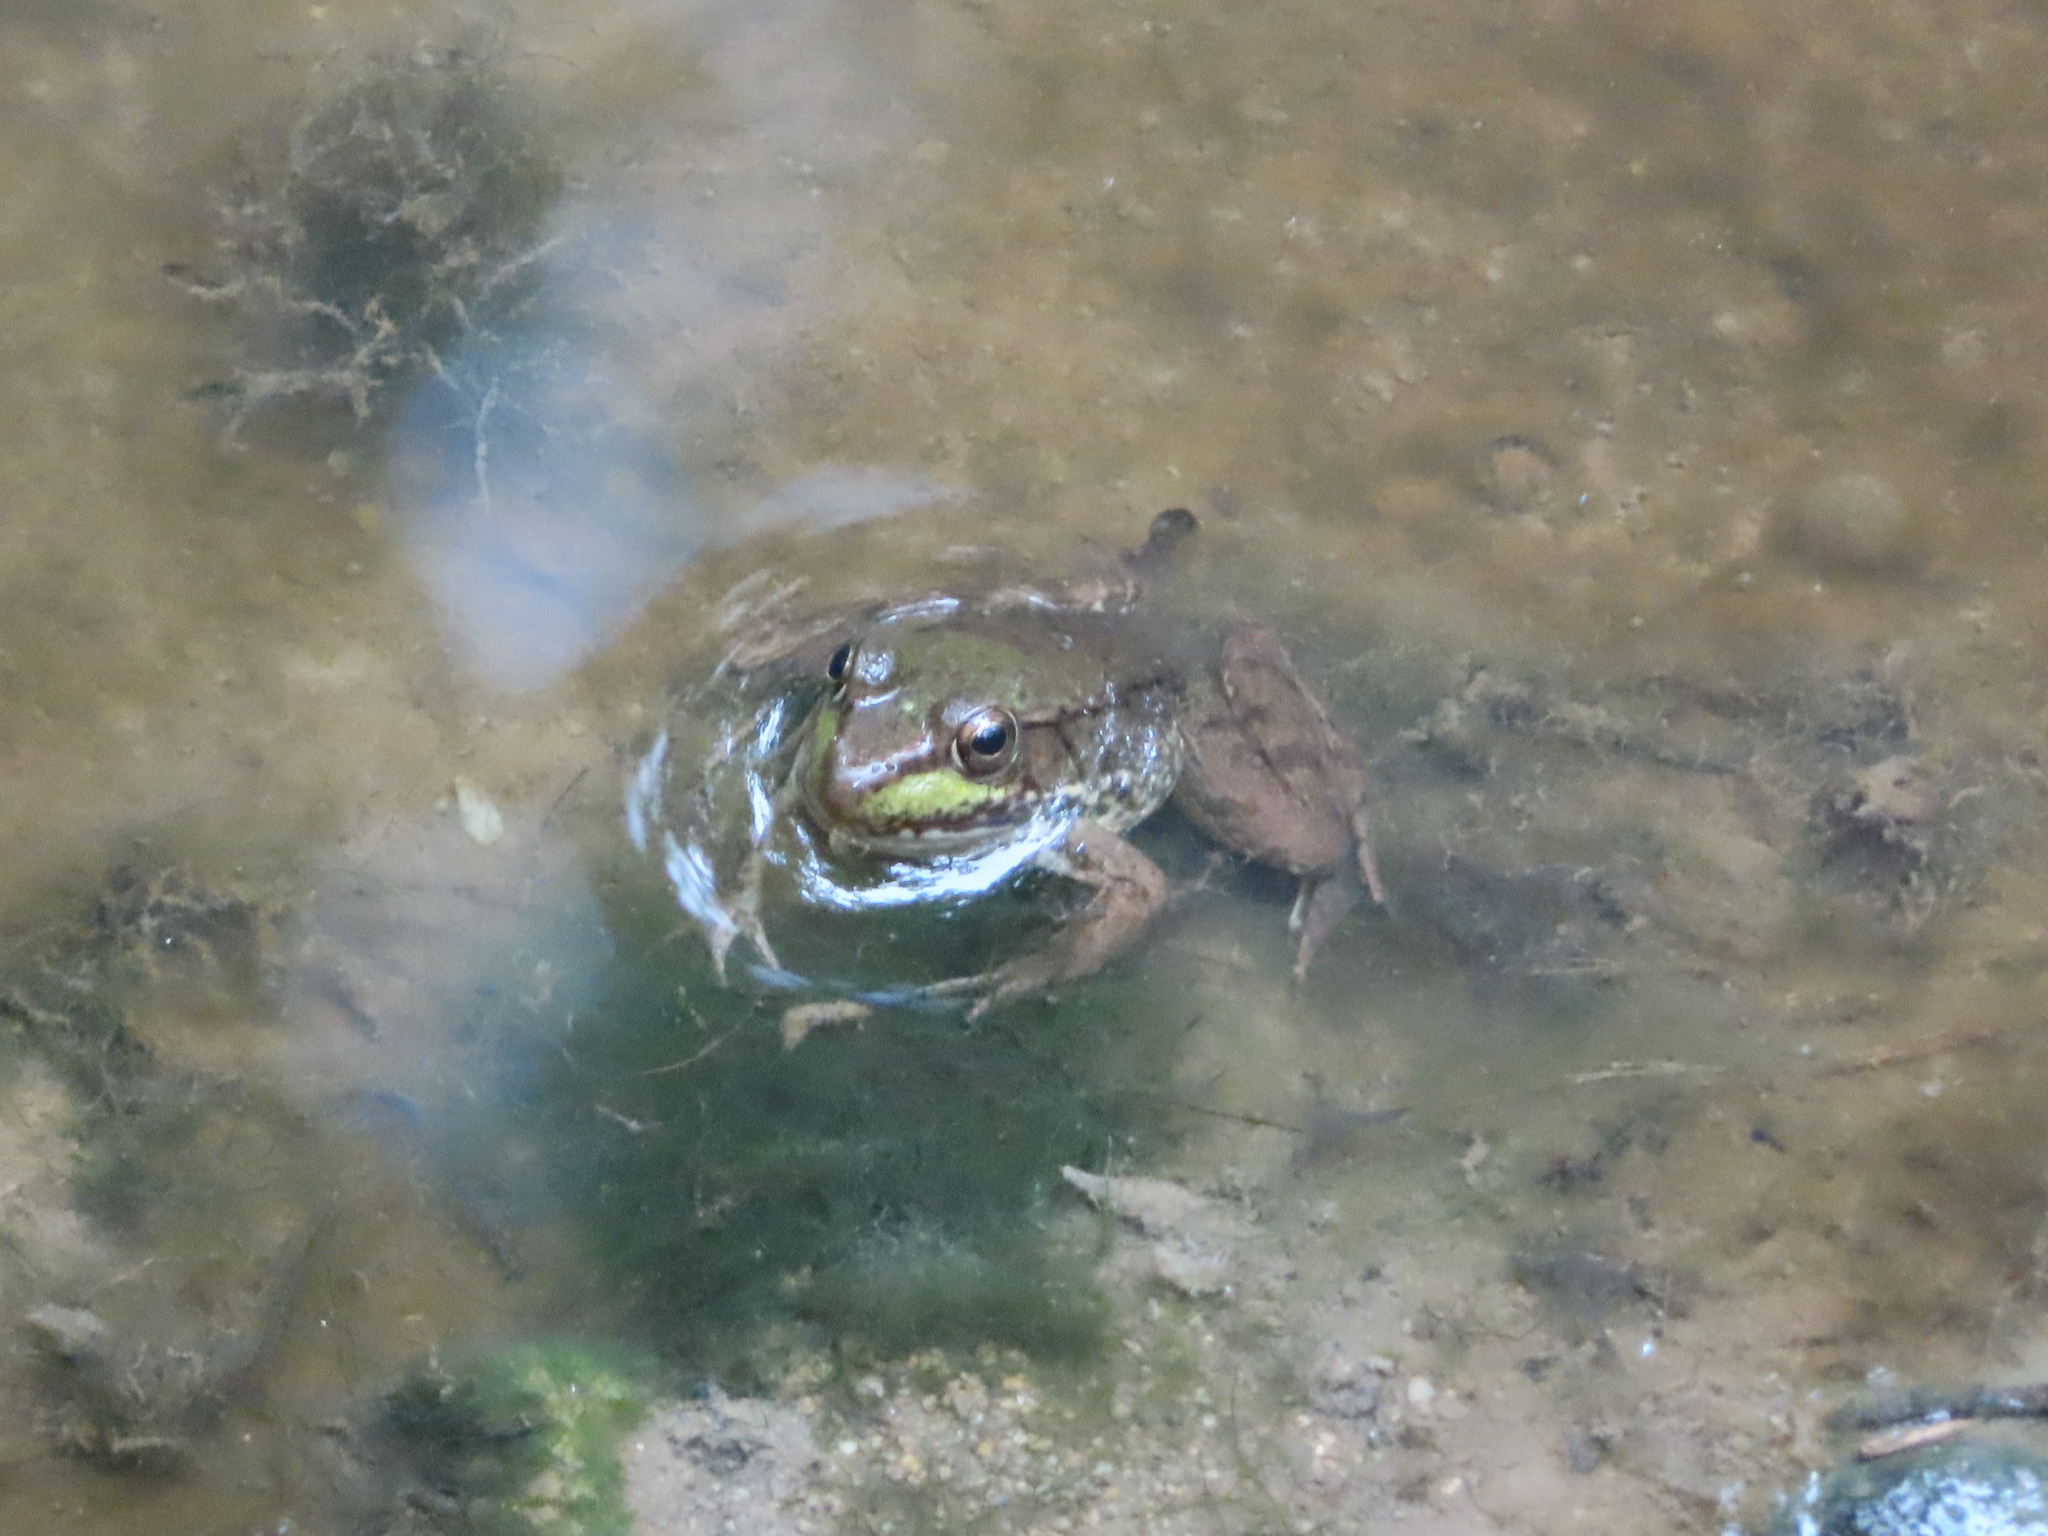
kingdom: Animalia
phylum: Chordata
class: Amphibia
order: Anura
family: Ranidae
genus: Lithobates
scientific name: Lithobates clamitans
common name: Green frog
